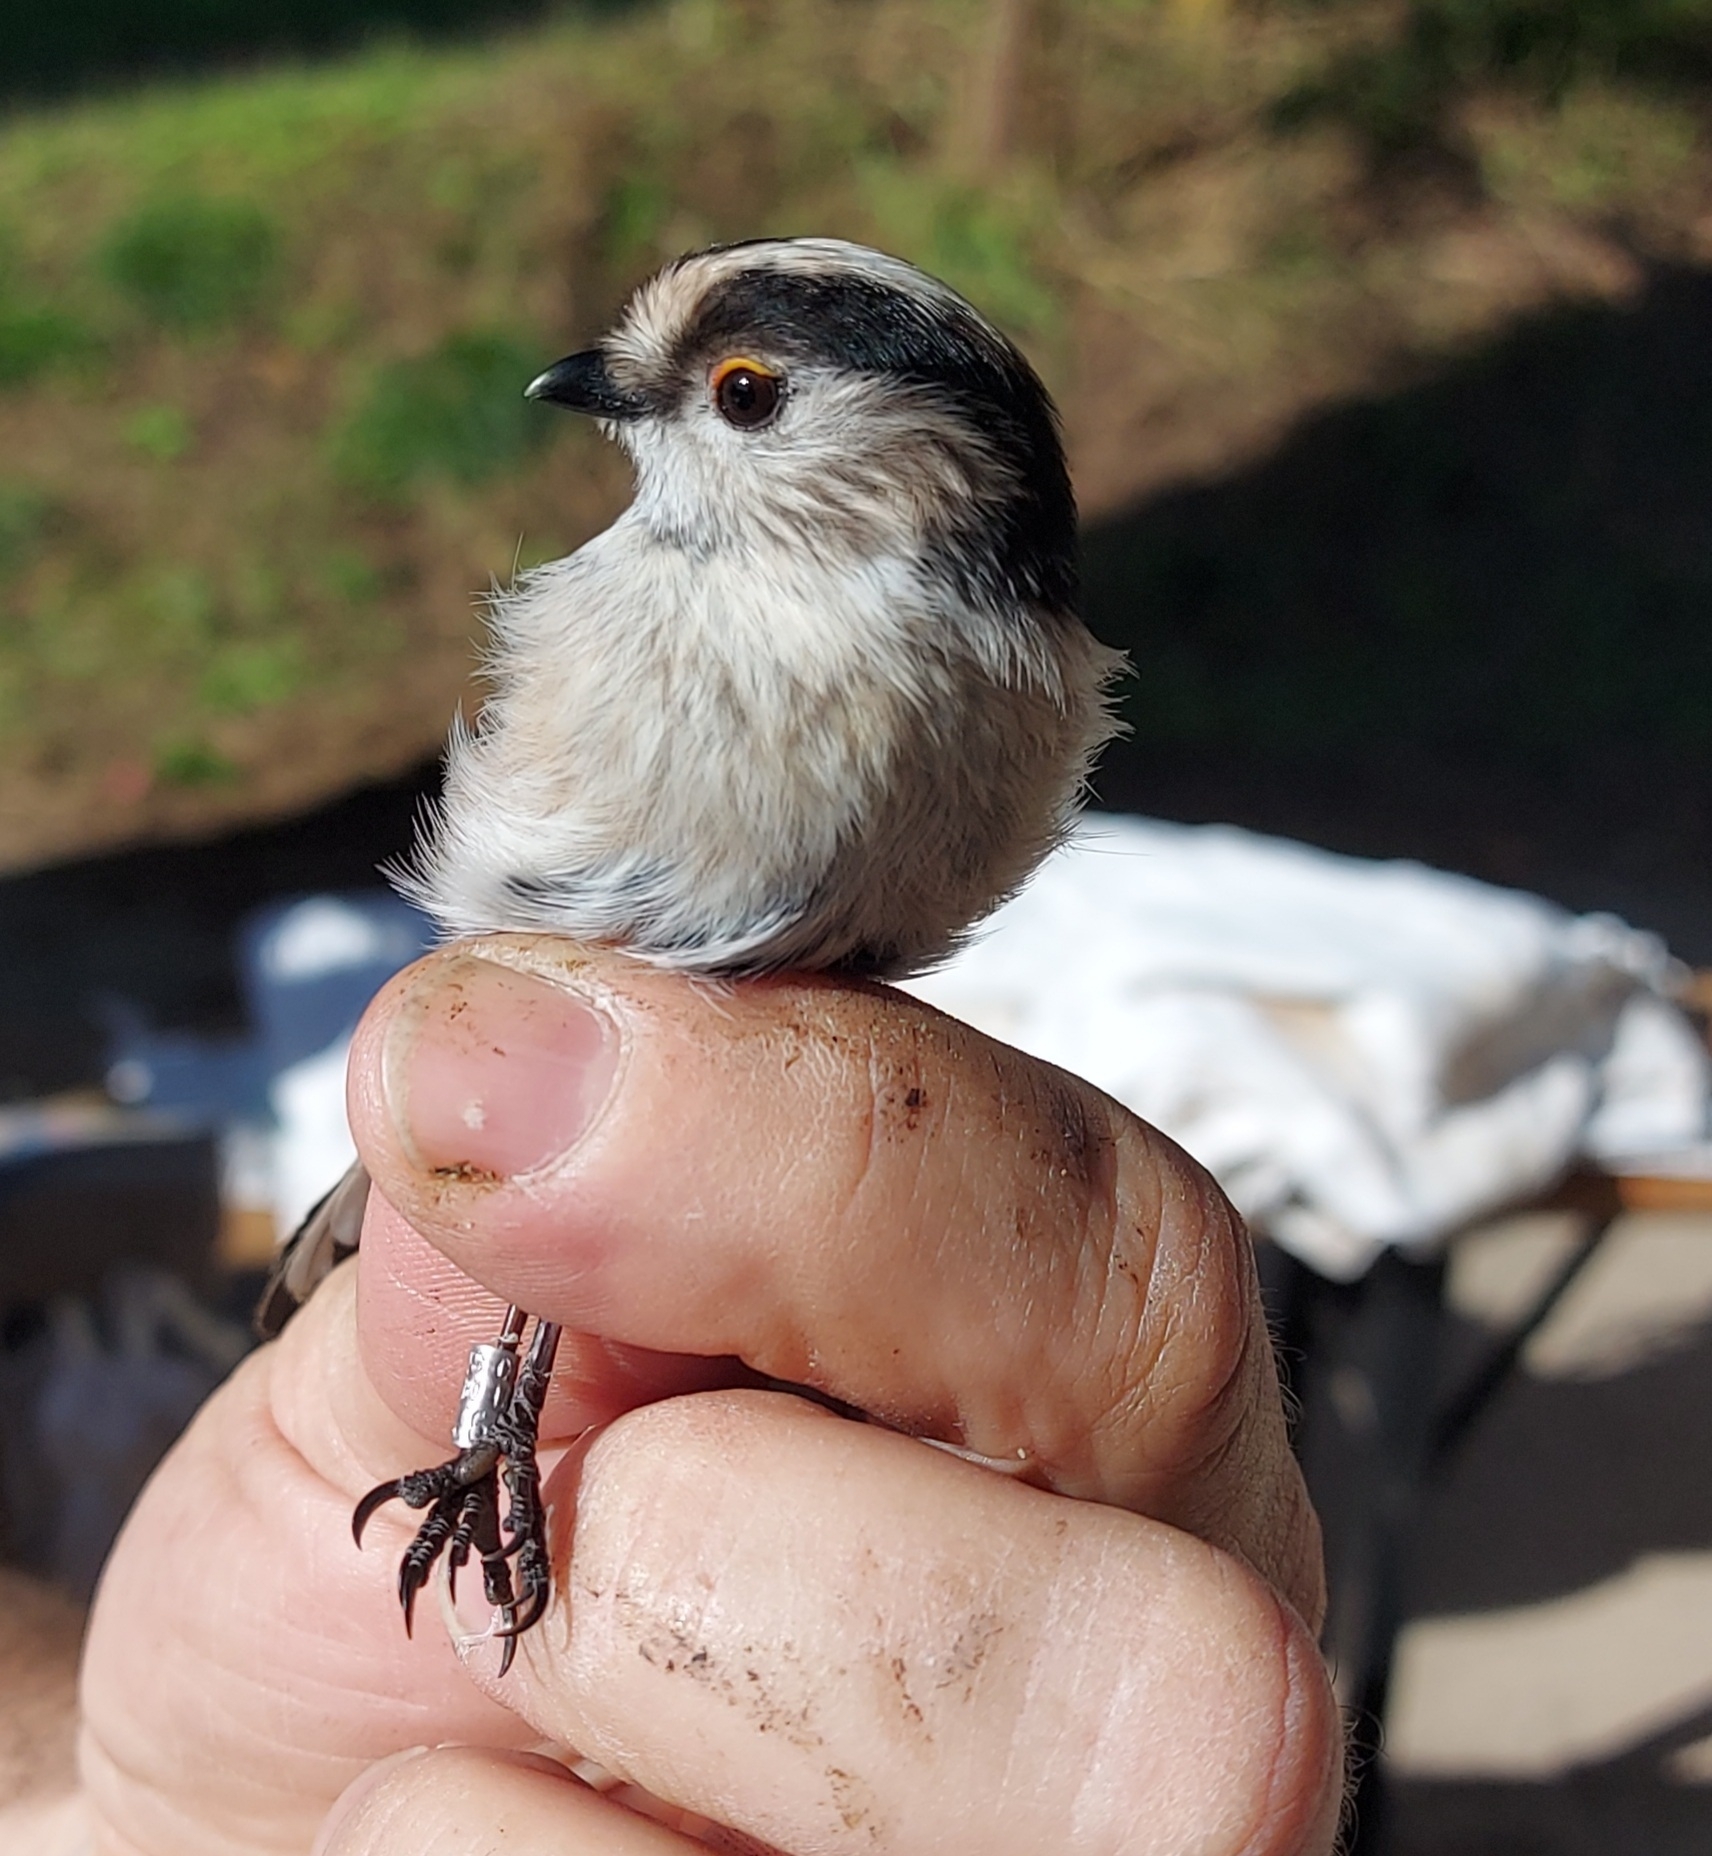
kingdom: Animalia
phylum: Chordata
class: Aves
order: Passeriformes
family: Aegithalidae
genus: Aegithalos
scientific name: Aegithalos caudatus
